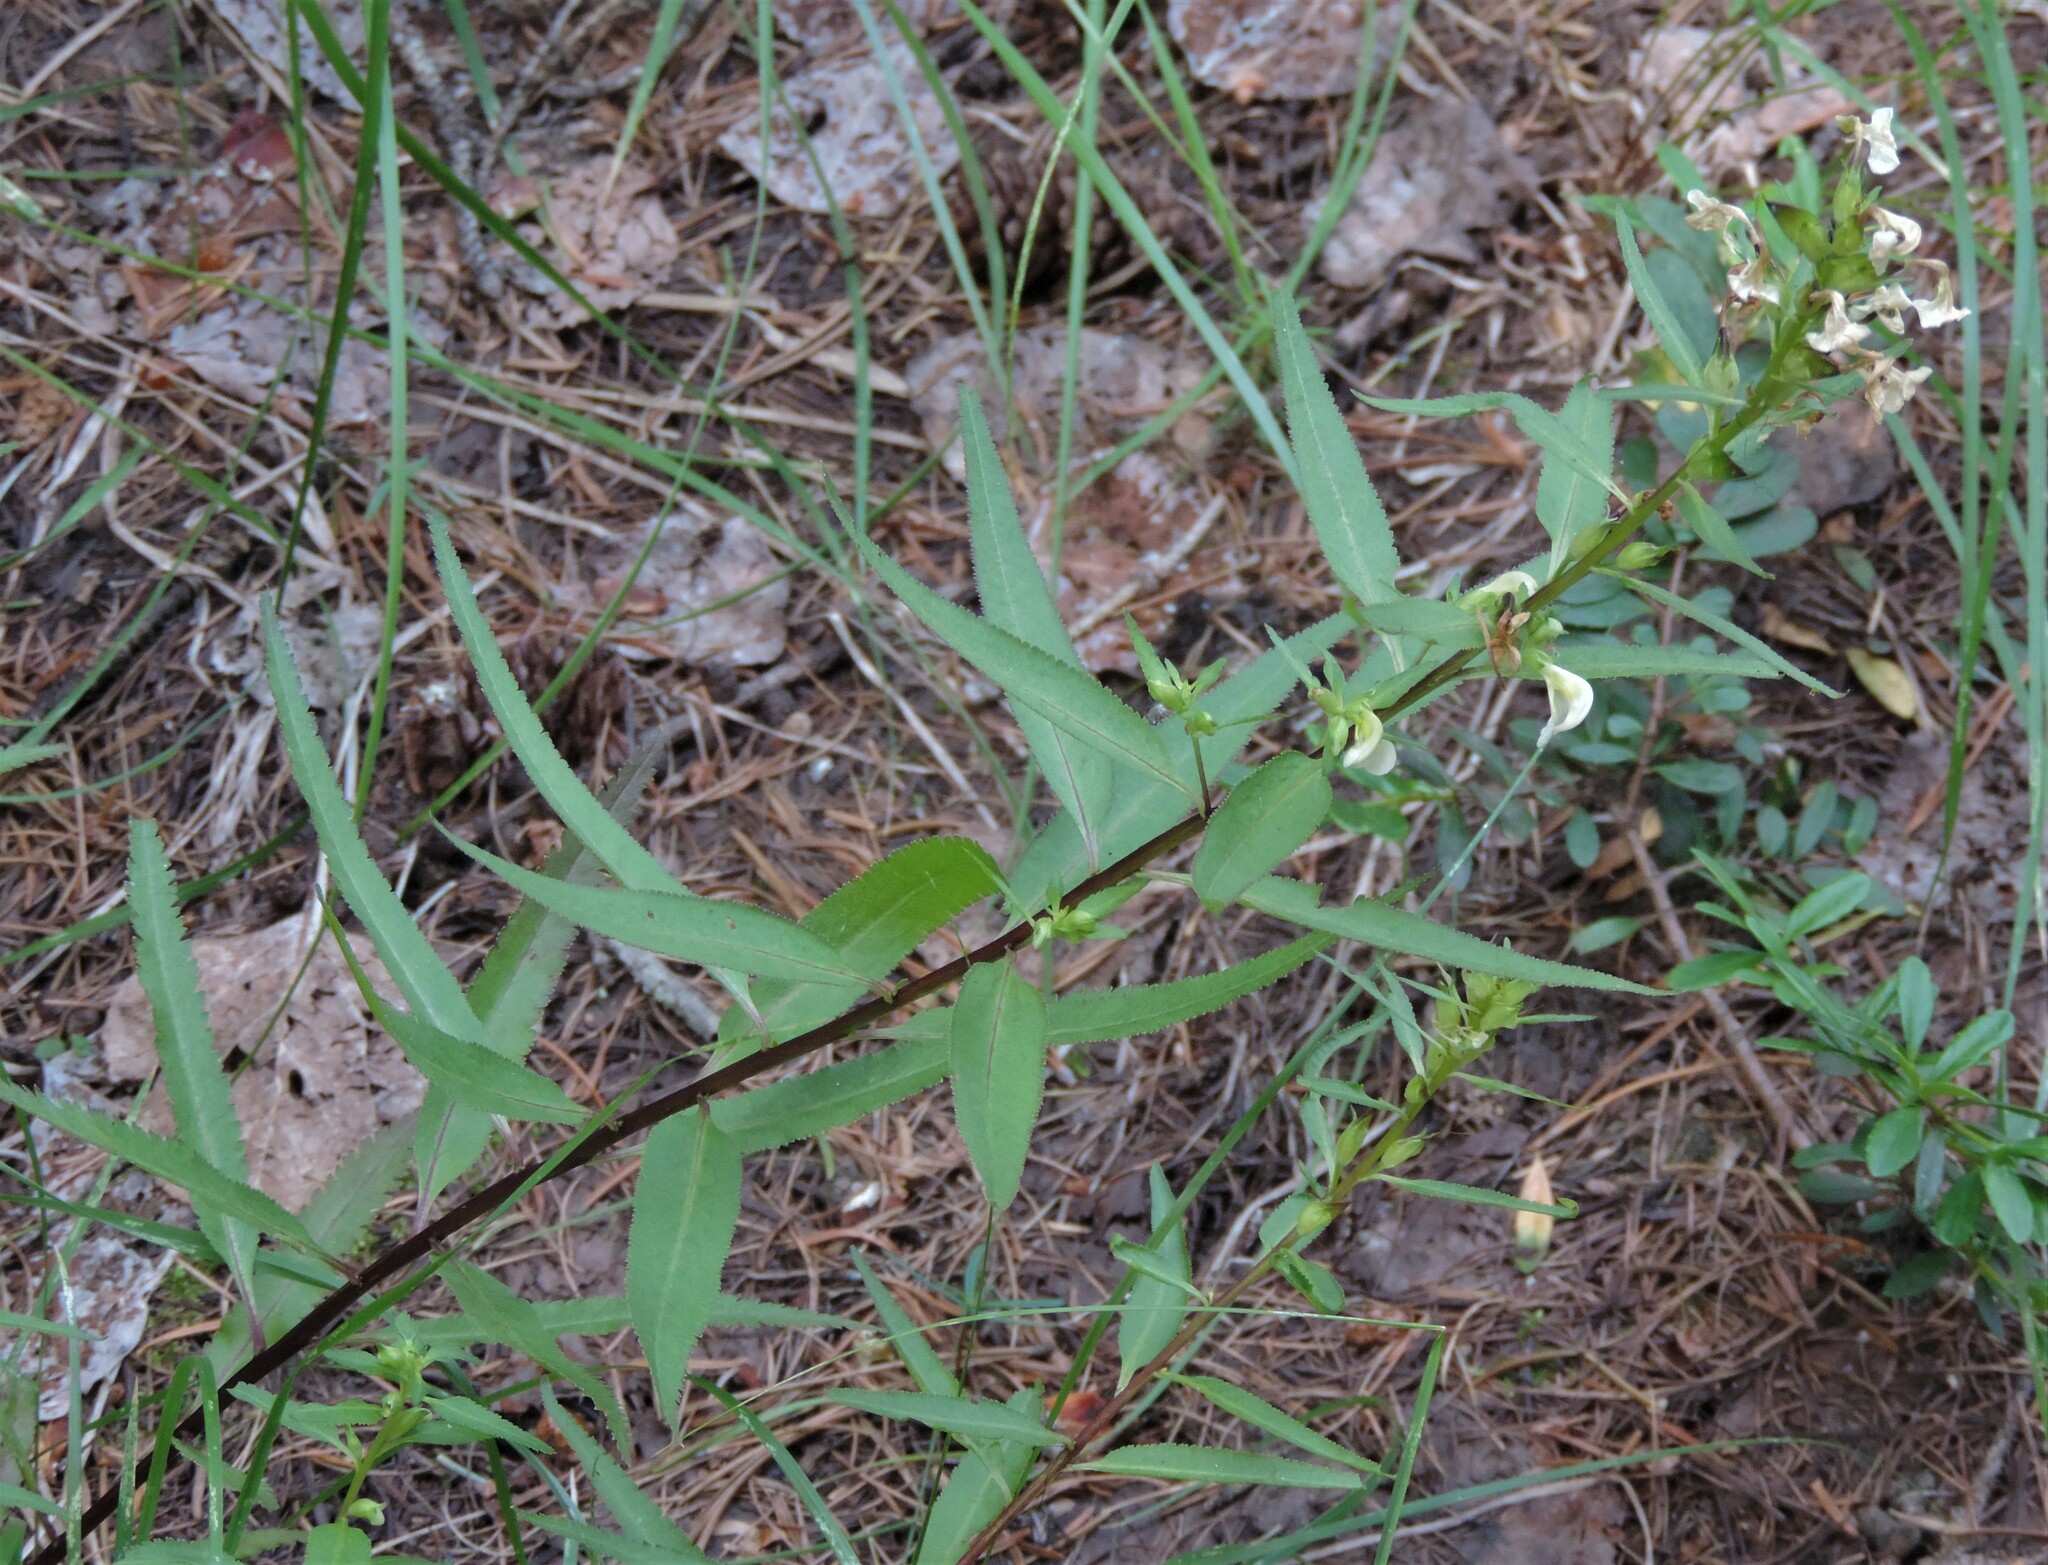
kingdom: Plantae
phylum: Tracheophyta
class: Magnoliopsida
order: Lamiales
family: Orobanchaceae
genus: Pedicularis
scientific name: Pedicularis racemosa
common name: Leafy lousewort
